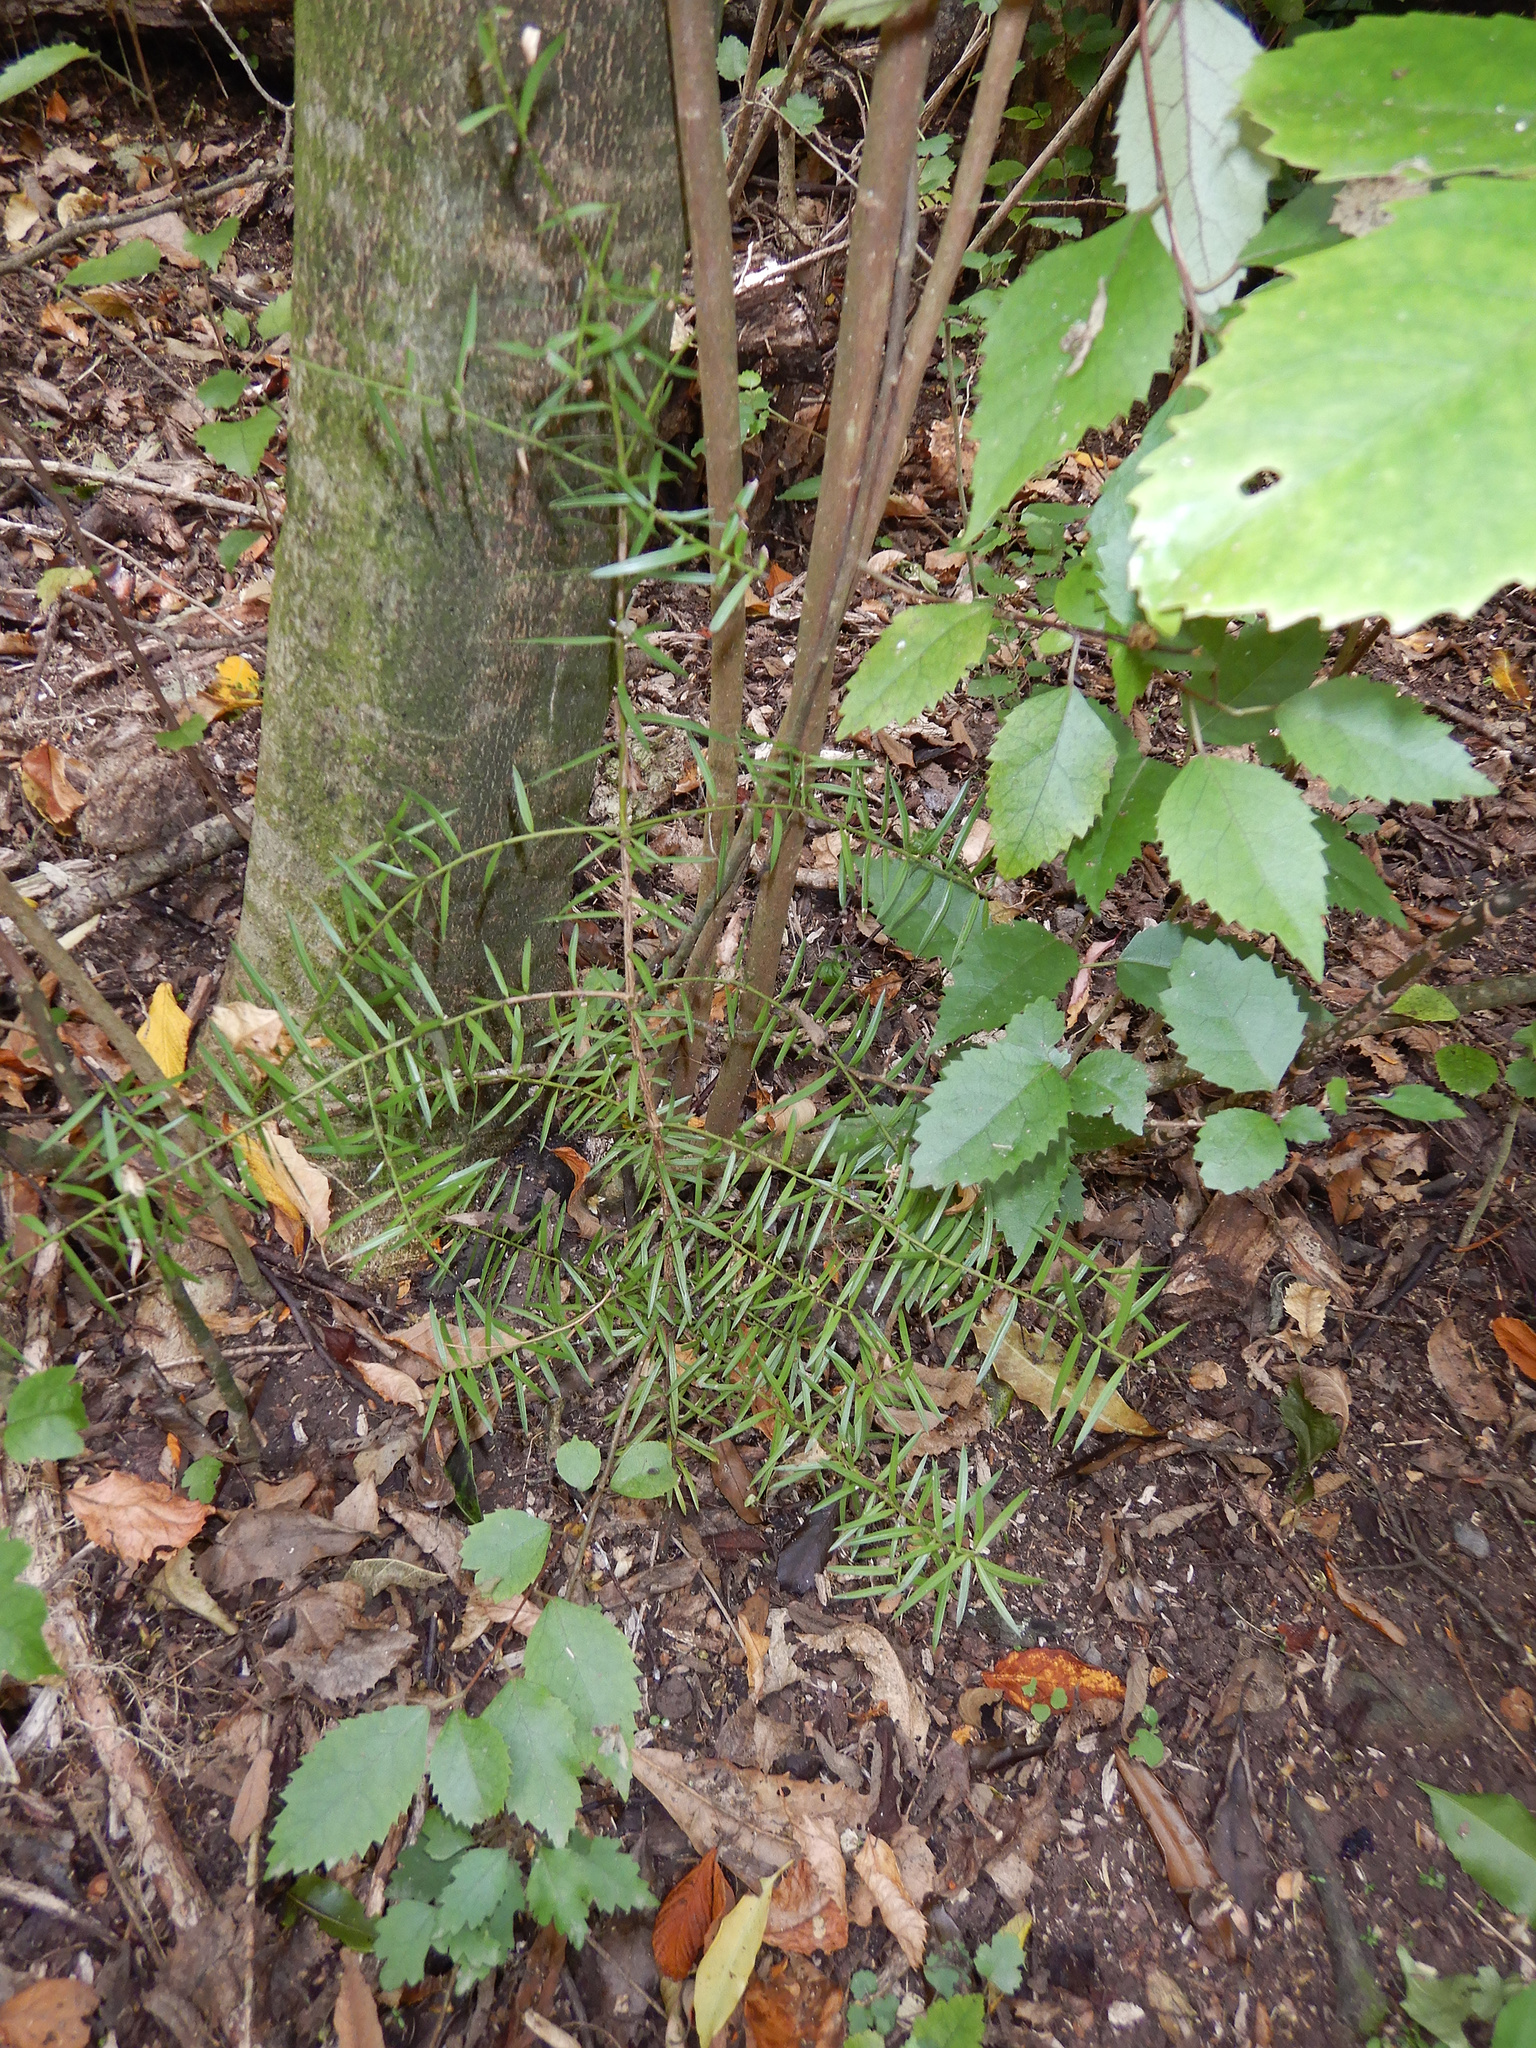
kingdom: Plantae
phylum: Tracheophyta
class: Pinopsida
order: Pinales
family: Podocarpaceae
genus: Podocarpus
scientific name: Podocarpus totara
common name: Totara
